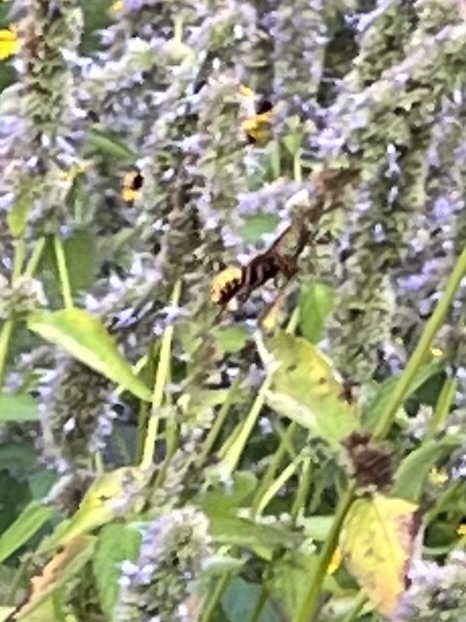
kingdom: Animalia
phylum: Arthropoda
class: Insecta
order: Hymenoptera
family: Vespidae
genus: Vespa
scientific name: Vespa crabro
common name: Hornet
